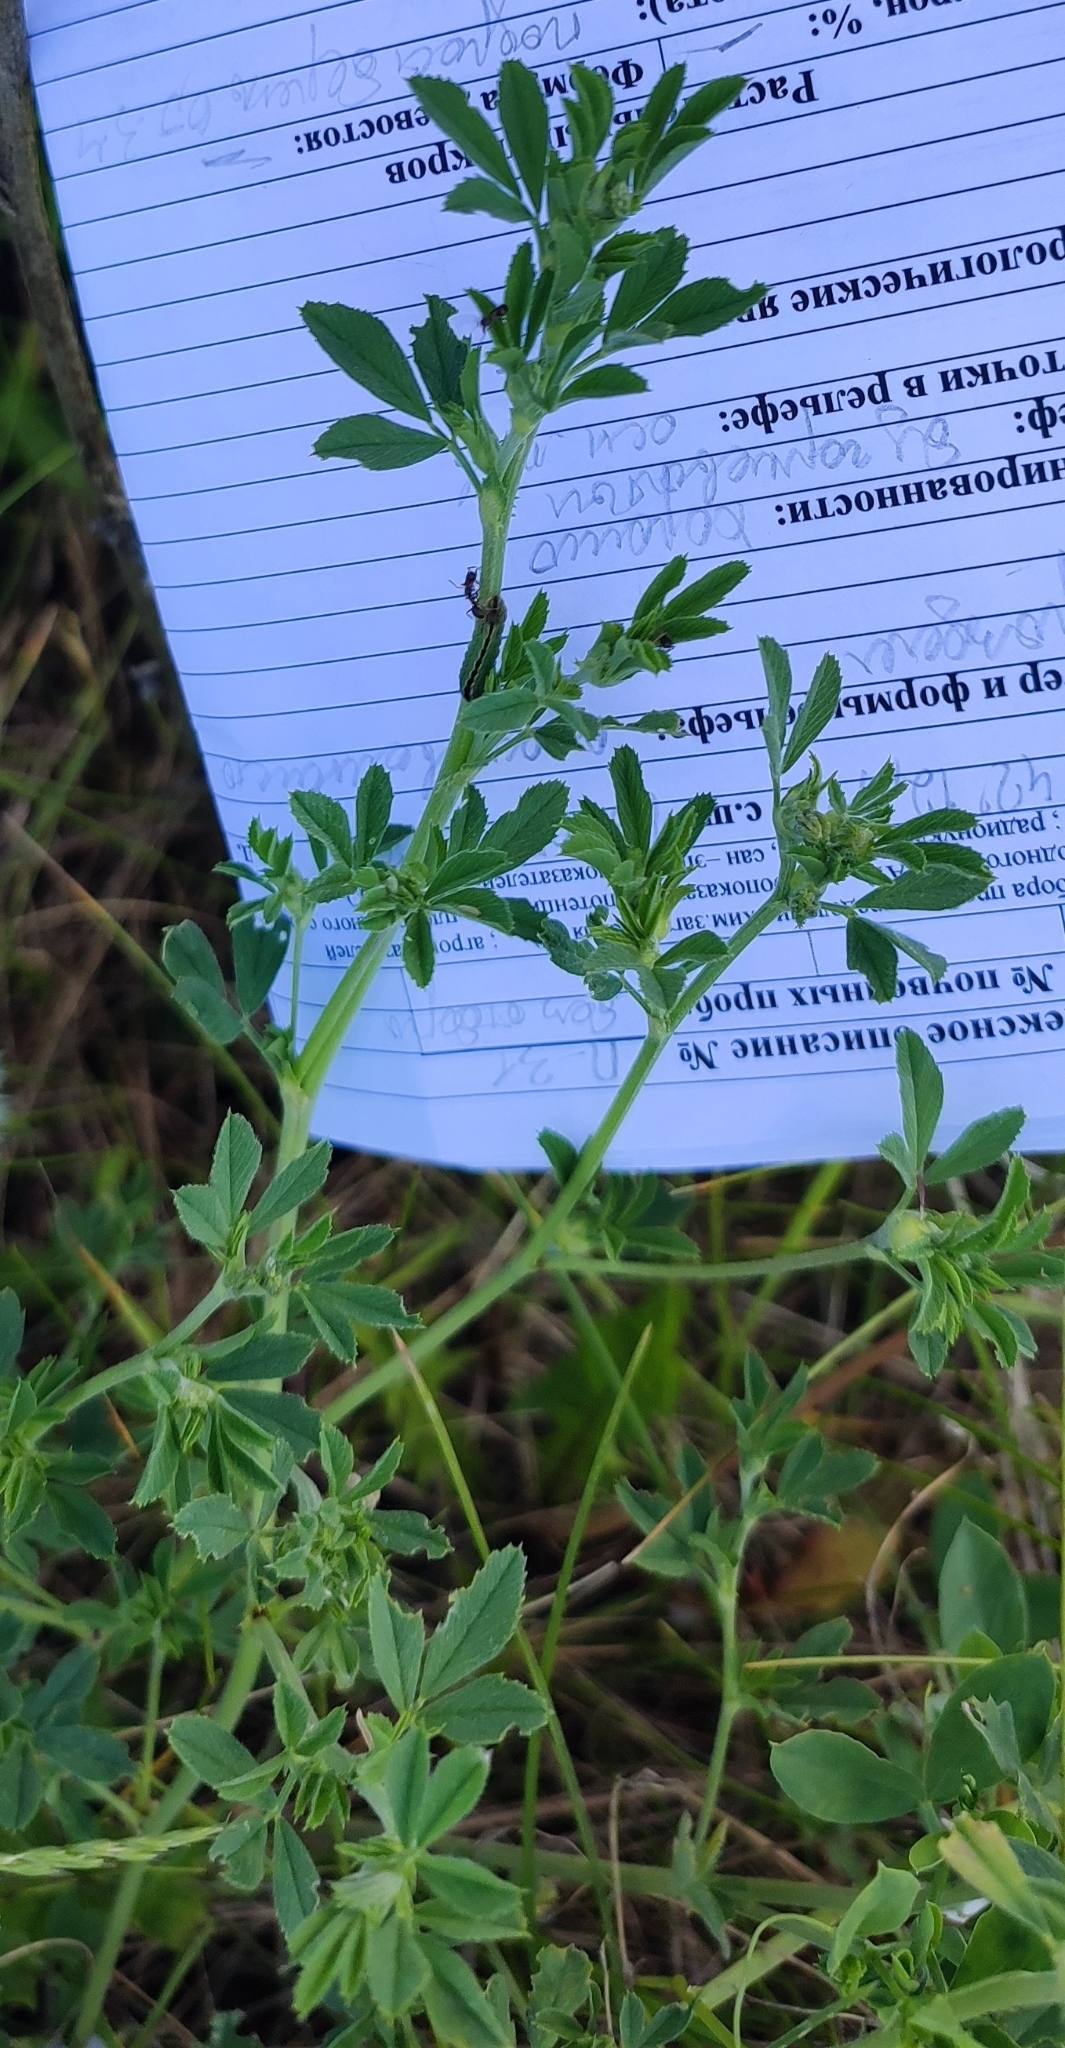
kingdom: Plantae
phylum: Tracheophyta
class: Magnoliopsida
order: Fabales
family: Fabaceae
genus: Medicago
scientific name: Medicago falcata
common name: Sickle medick
